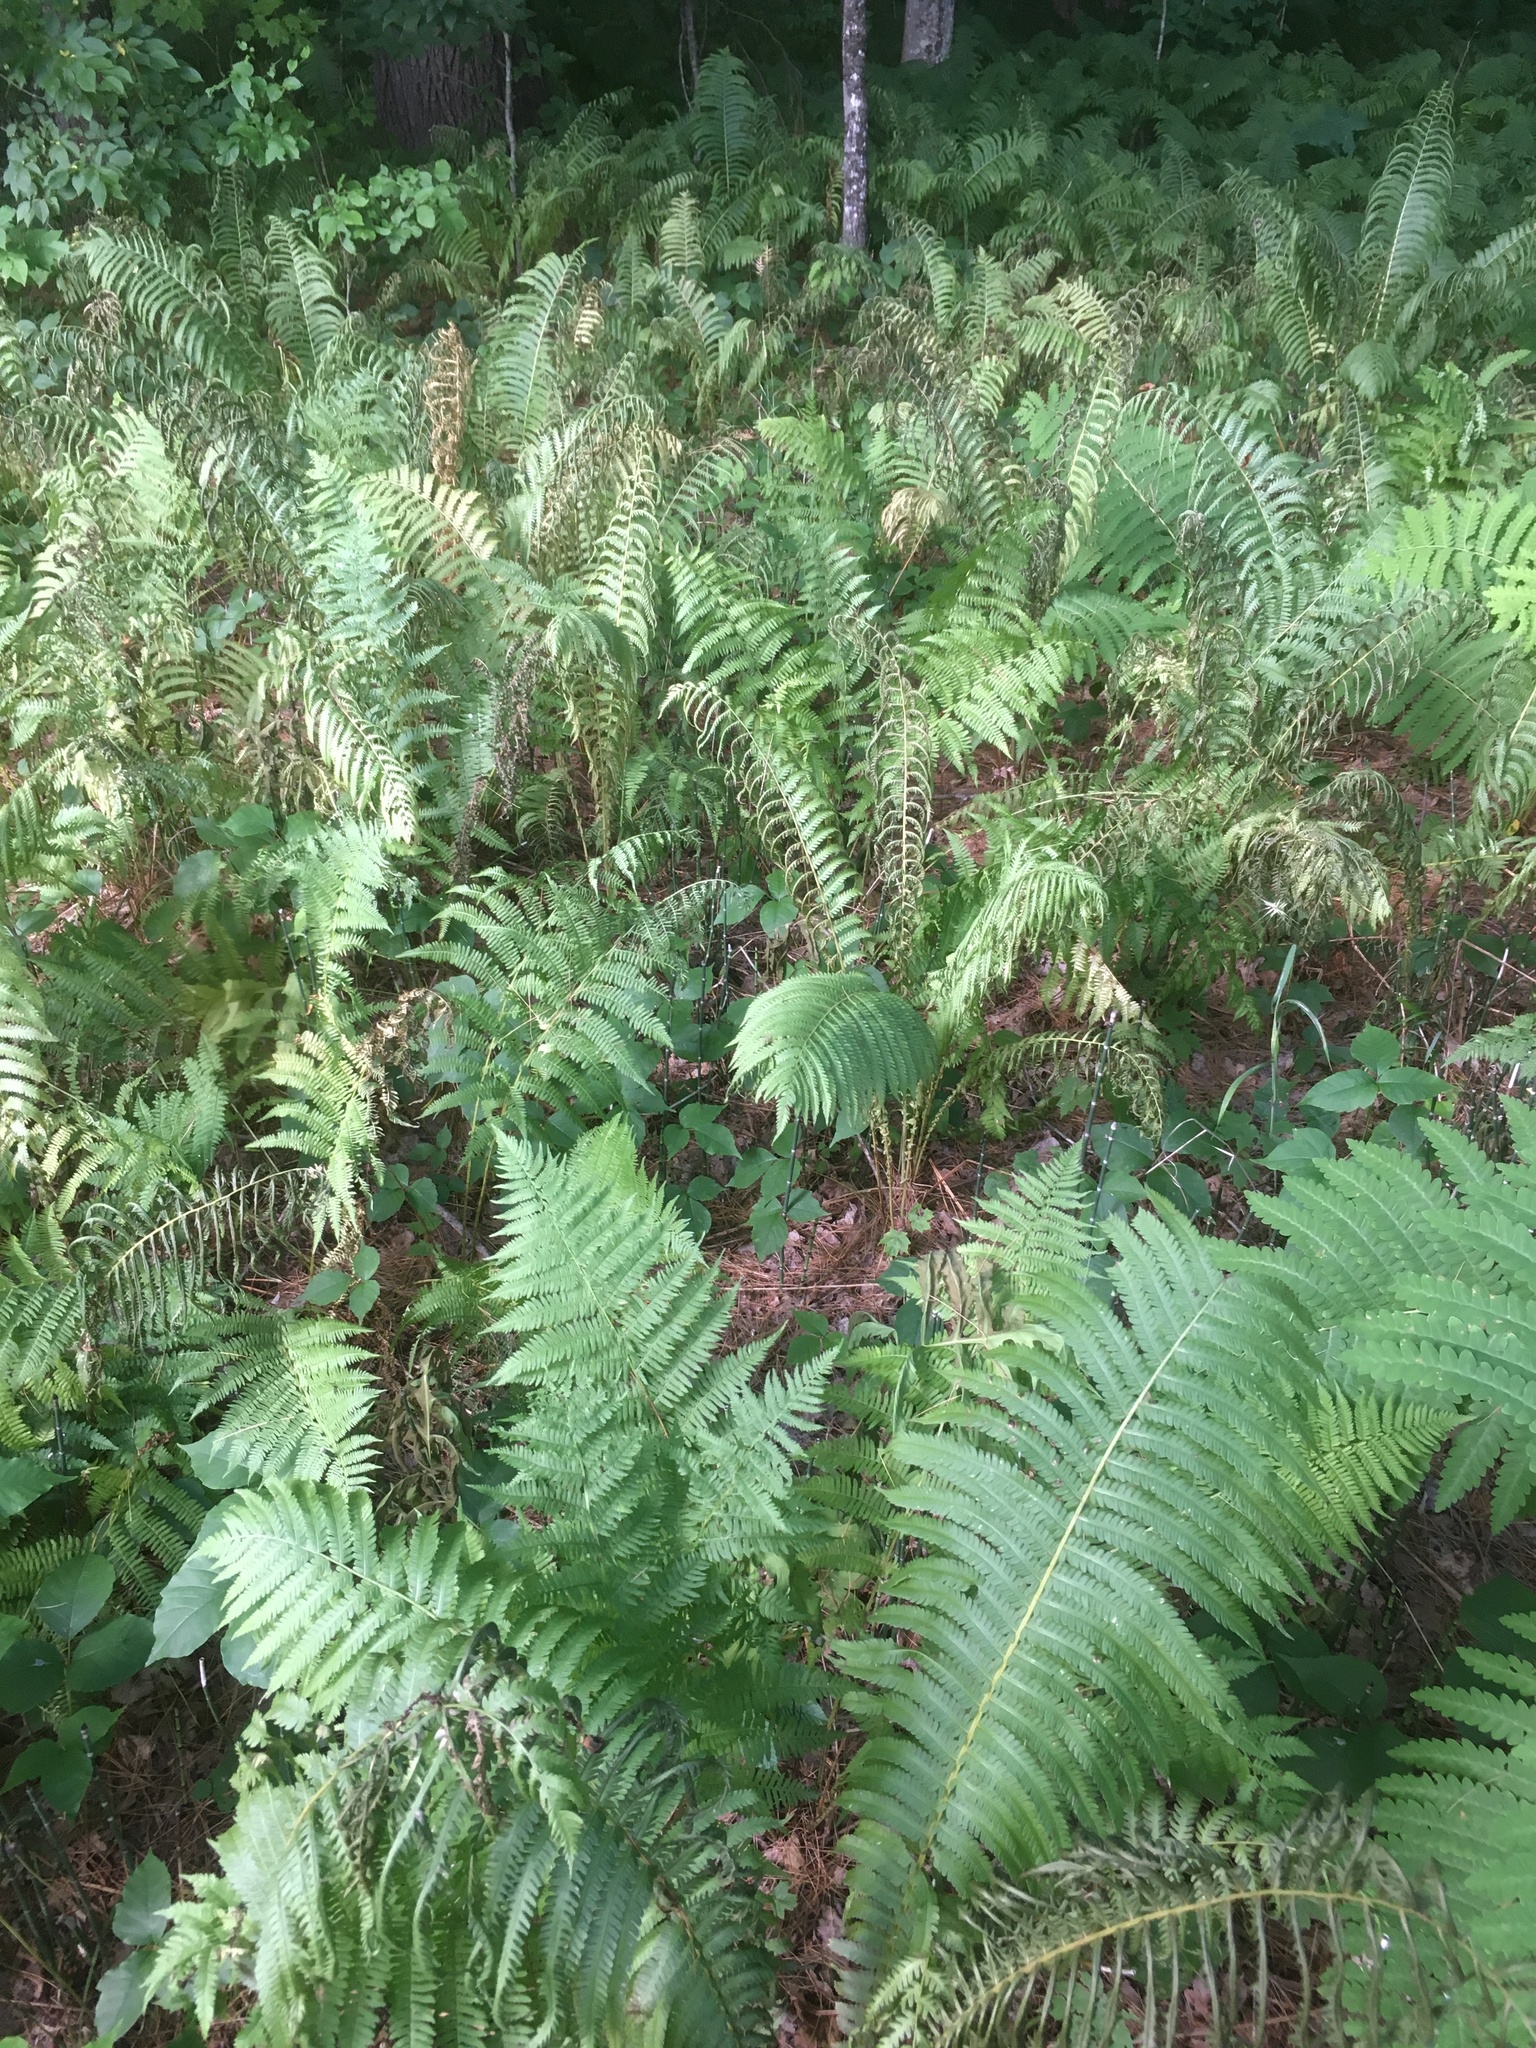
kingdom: Plantae
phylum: Tracheophyta
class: Polypodiopsida
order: Polypodiales
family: Onocleaceae
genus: Matteuccia
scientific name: Matteuccia struthiopteris
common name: Ostrich fern
